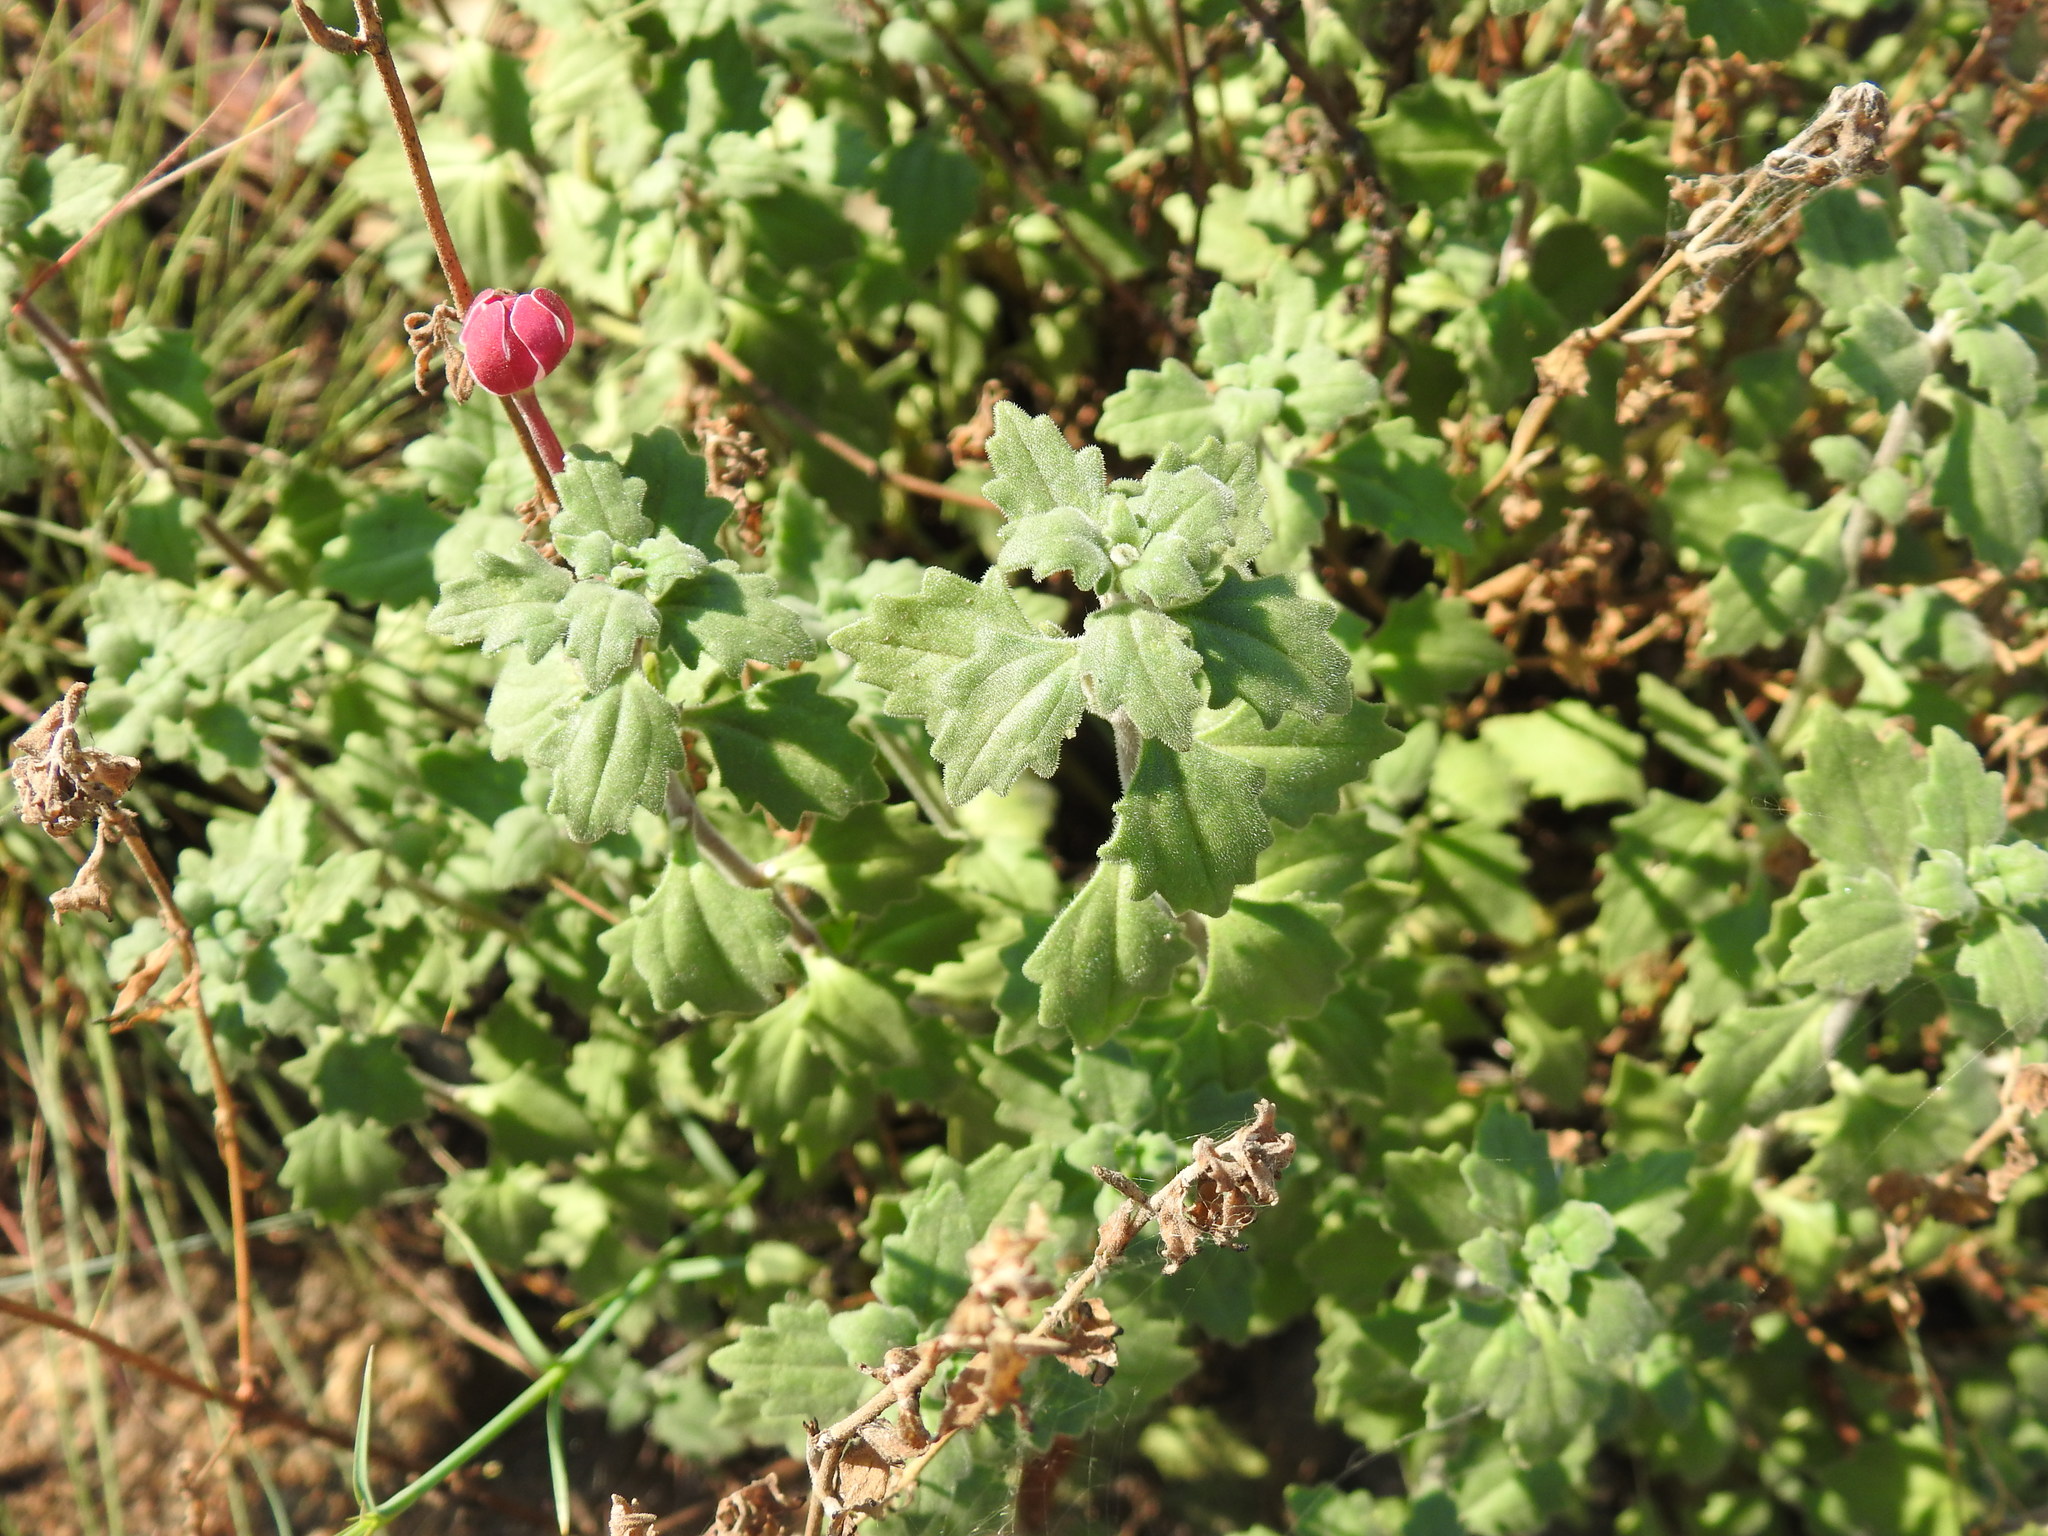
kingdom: Plantae
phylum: Tracheophyta
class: Magnoliopsida
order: Lamiales
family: Scrophulariaceae
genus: Zaluzianskya
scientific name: Zaluzianskya katharinae
